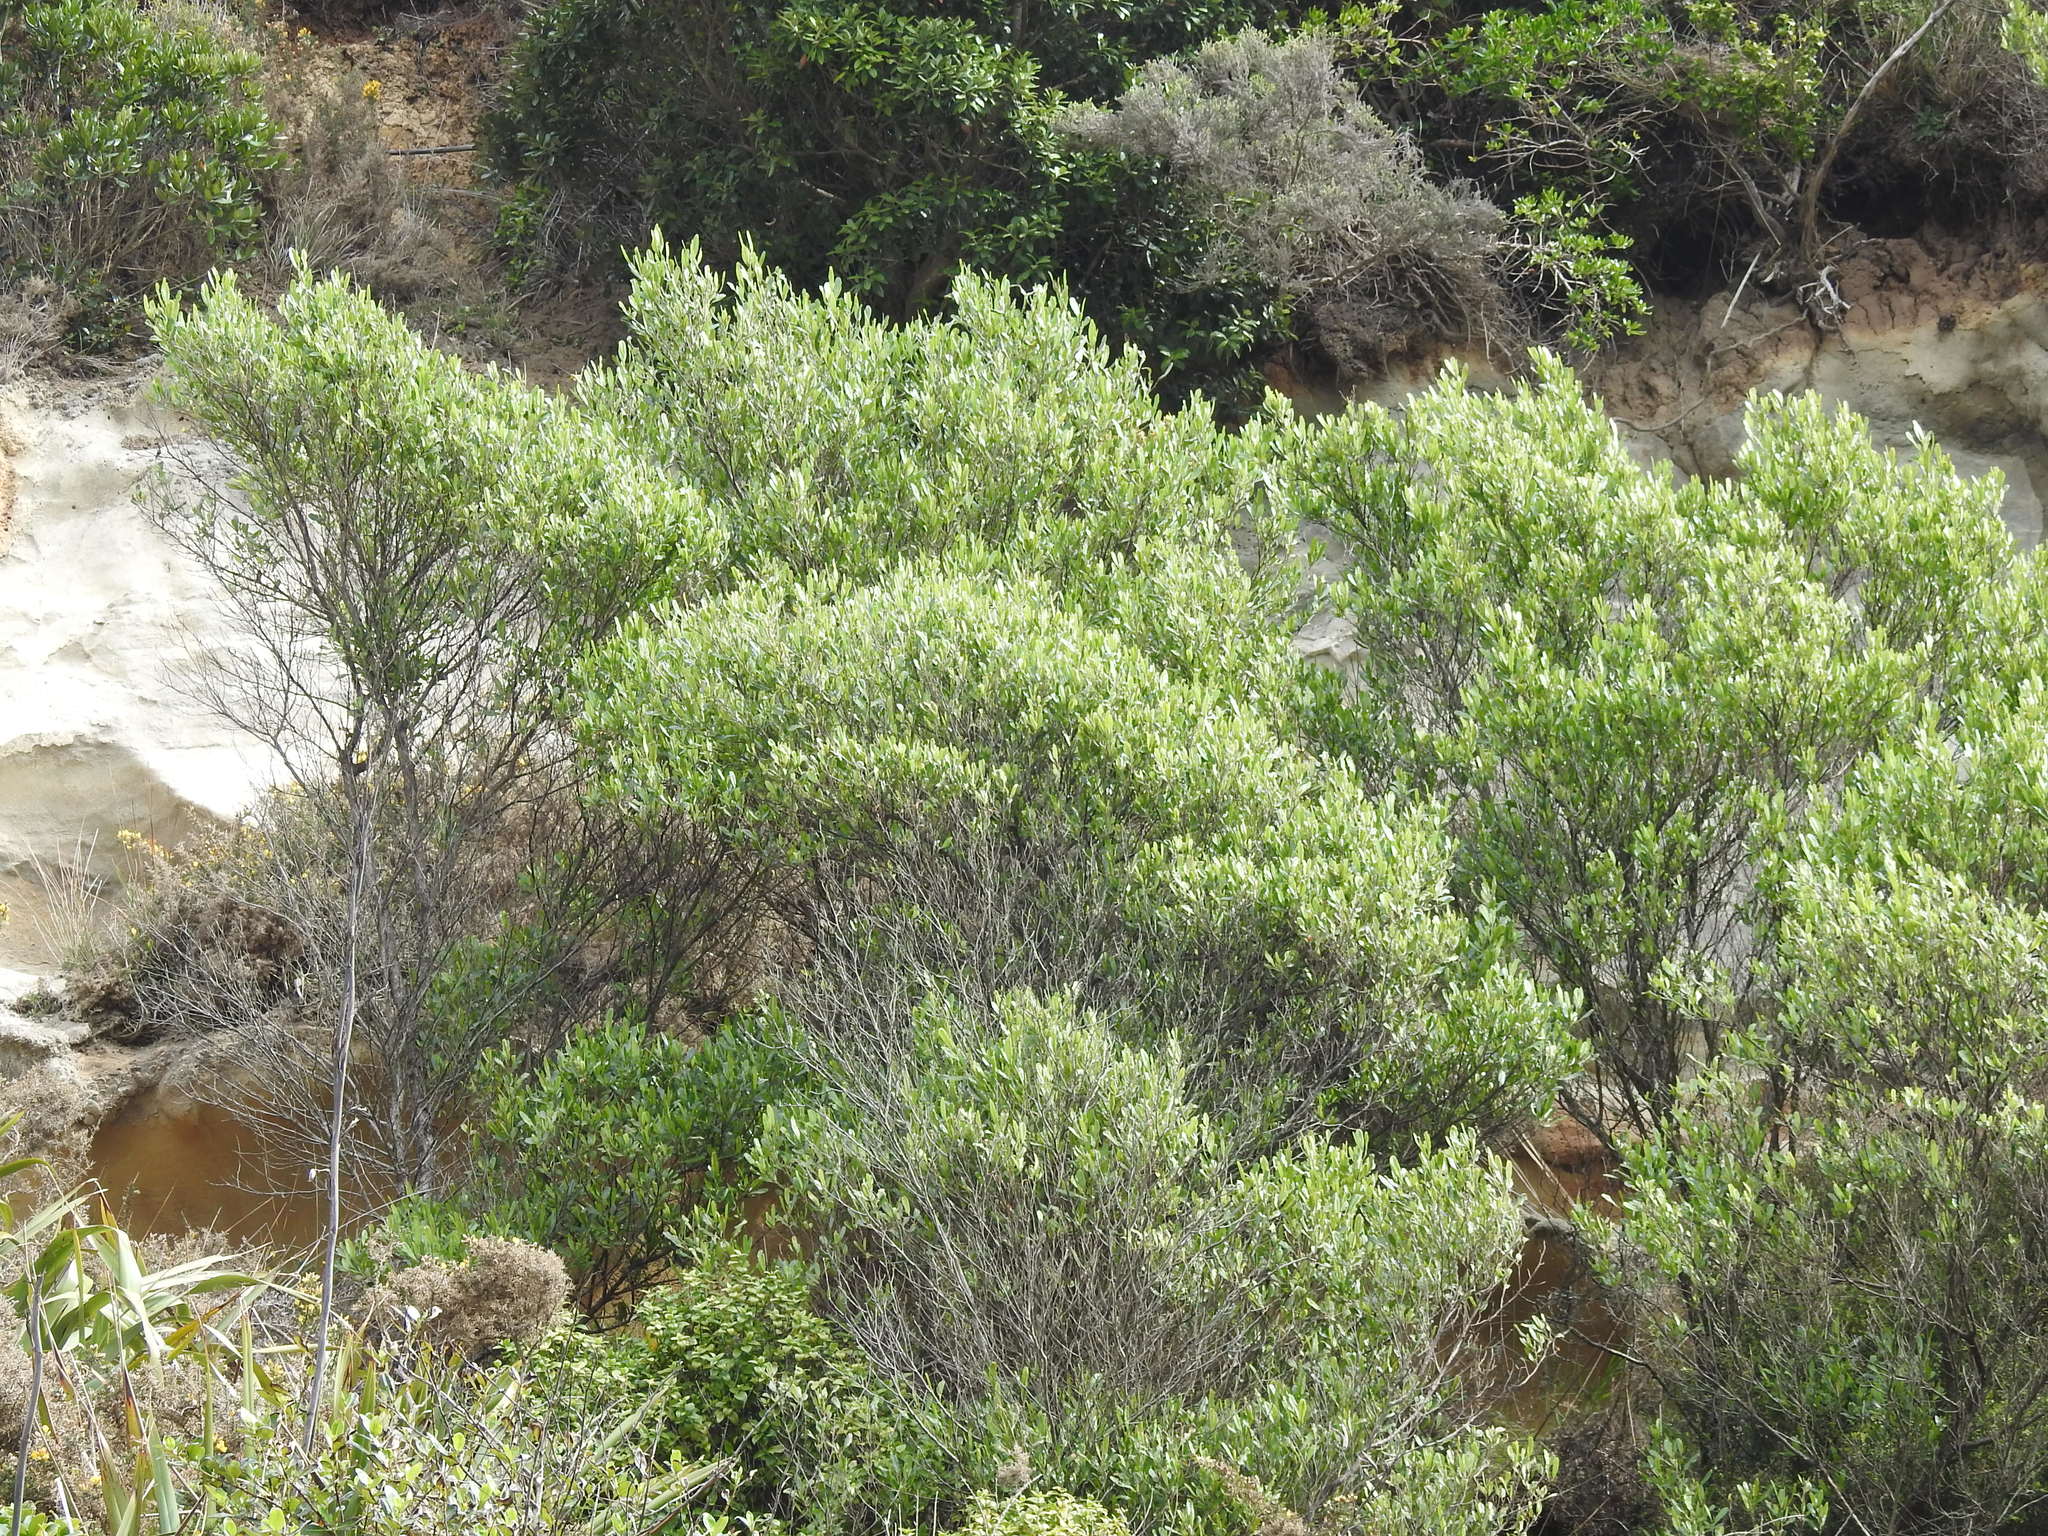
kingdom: Plantae
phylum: Tracheophyta
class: Magnoliopsida
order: Sapindales
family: Sapindaceae
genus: Dodonaea
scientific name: Dodonaea viscosa
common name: Hopbush
